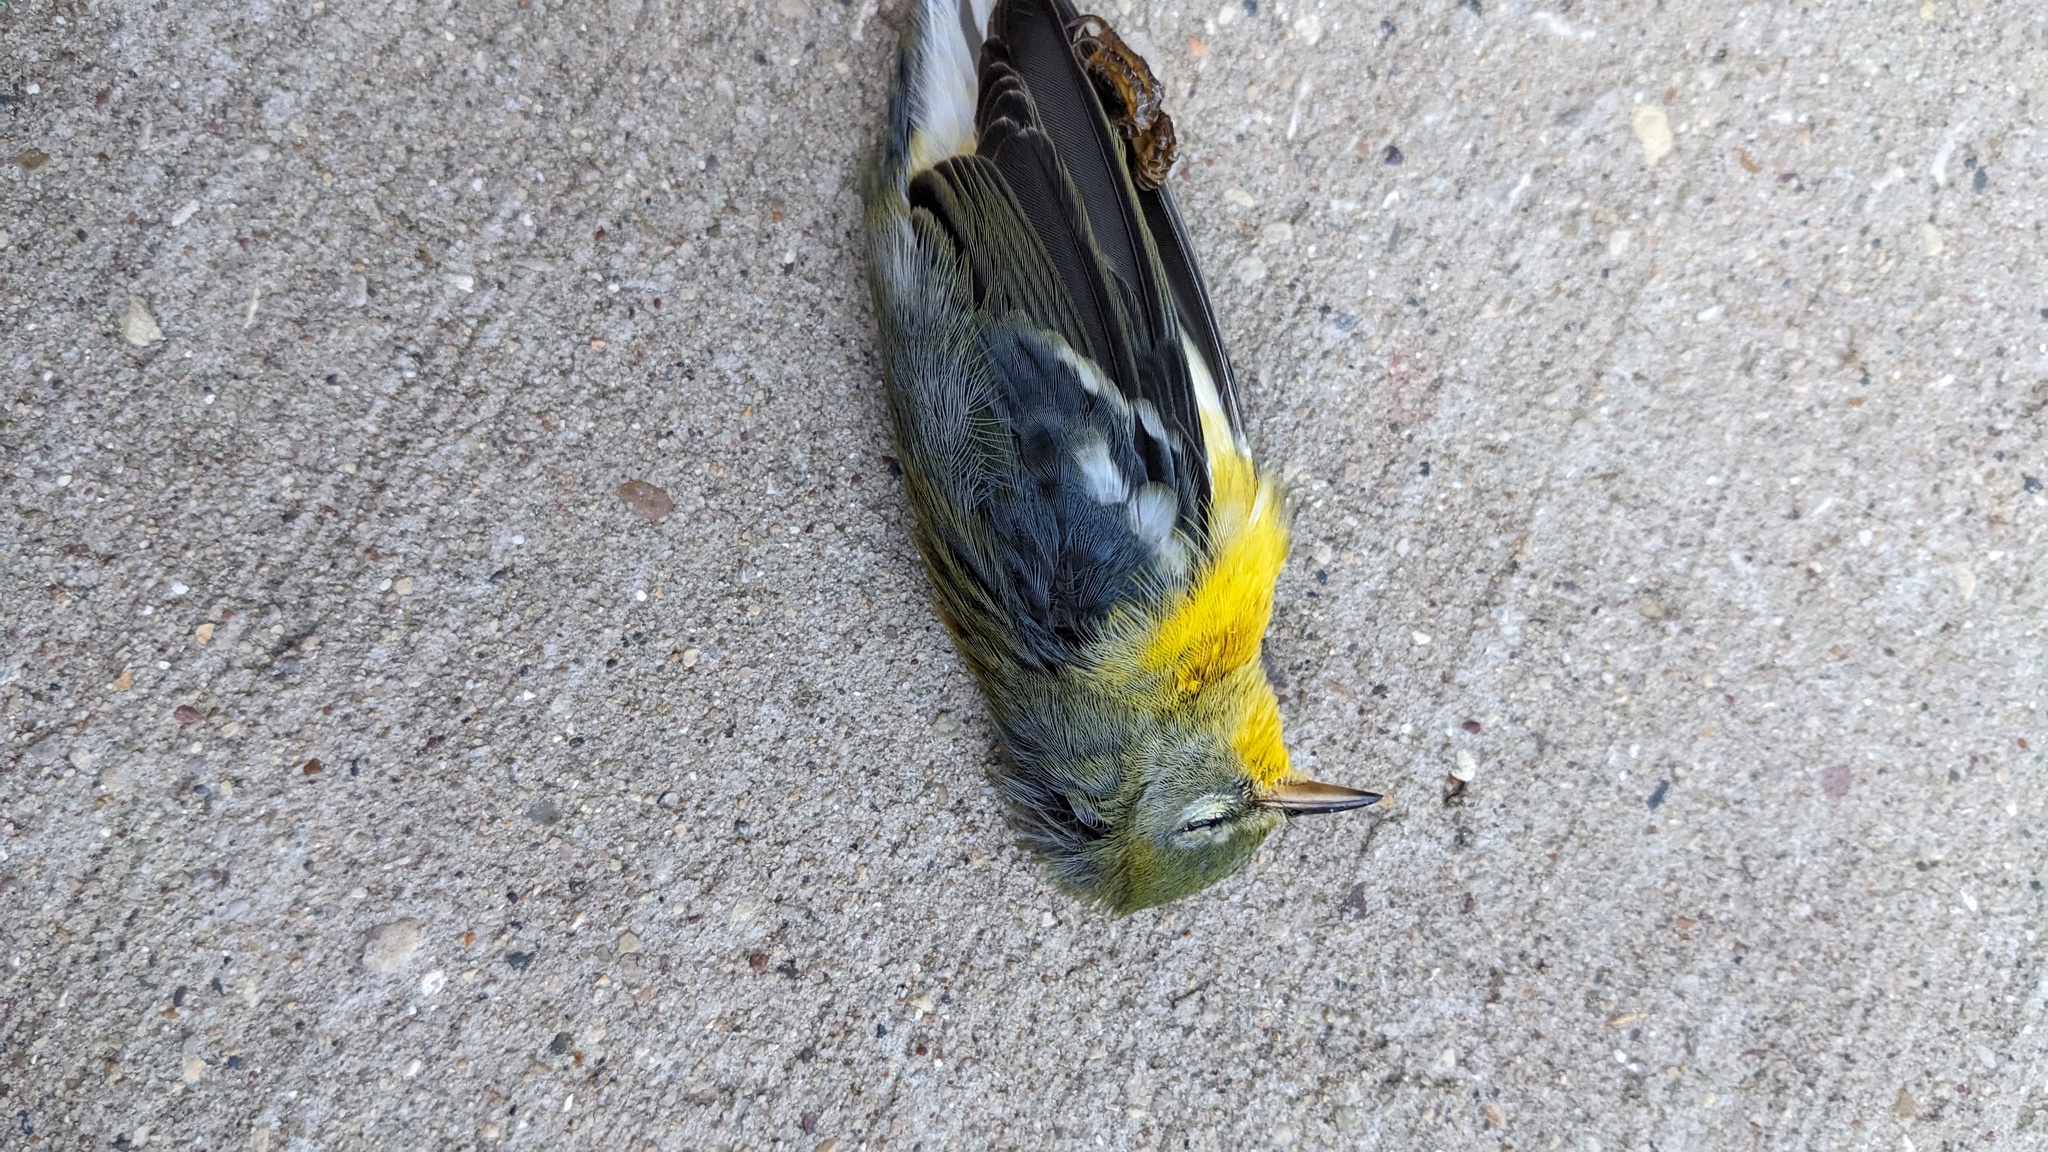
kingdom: Animalia
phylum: Chordata
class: Aves
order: Passeriformes
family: Parulidae
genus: Setophaga
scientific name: Setophaga americana
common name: Northern parula
